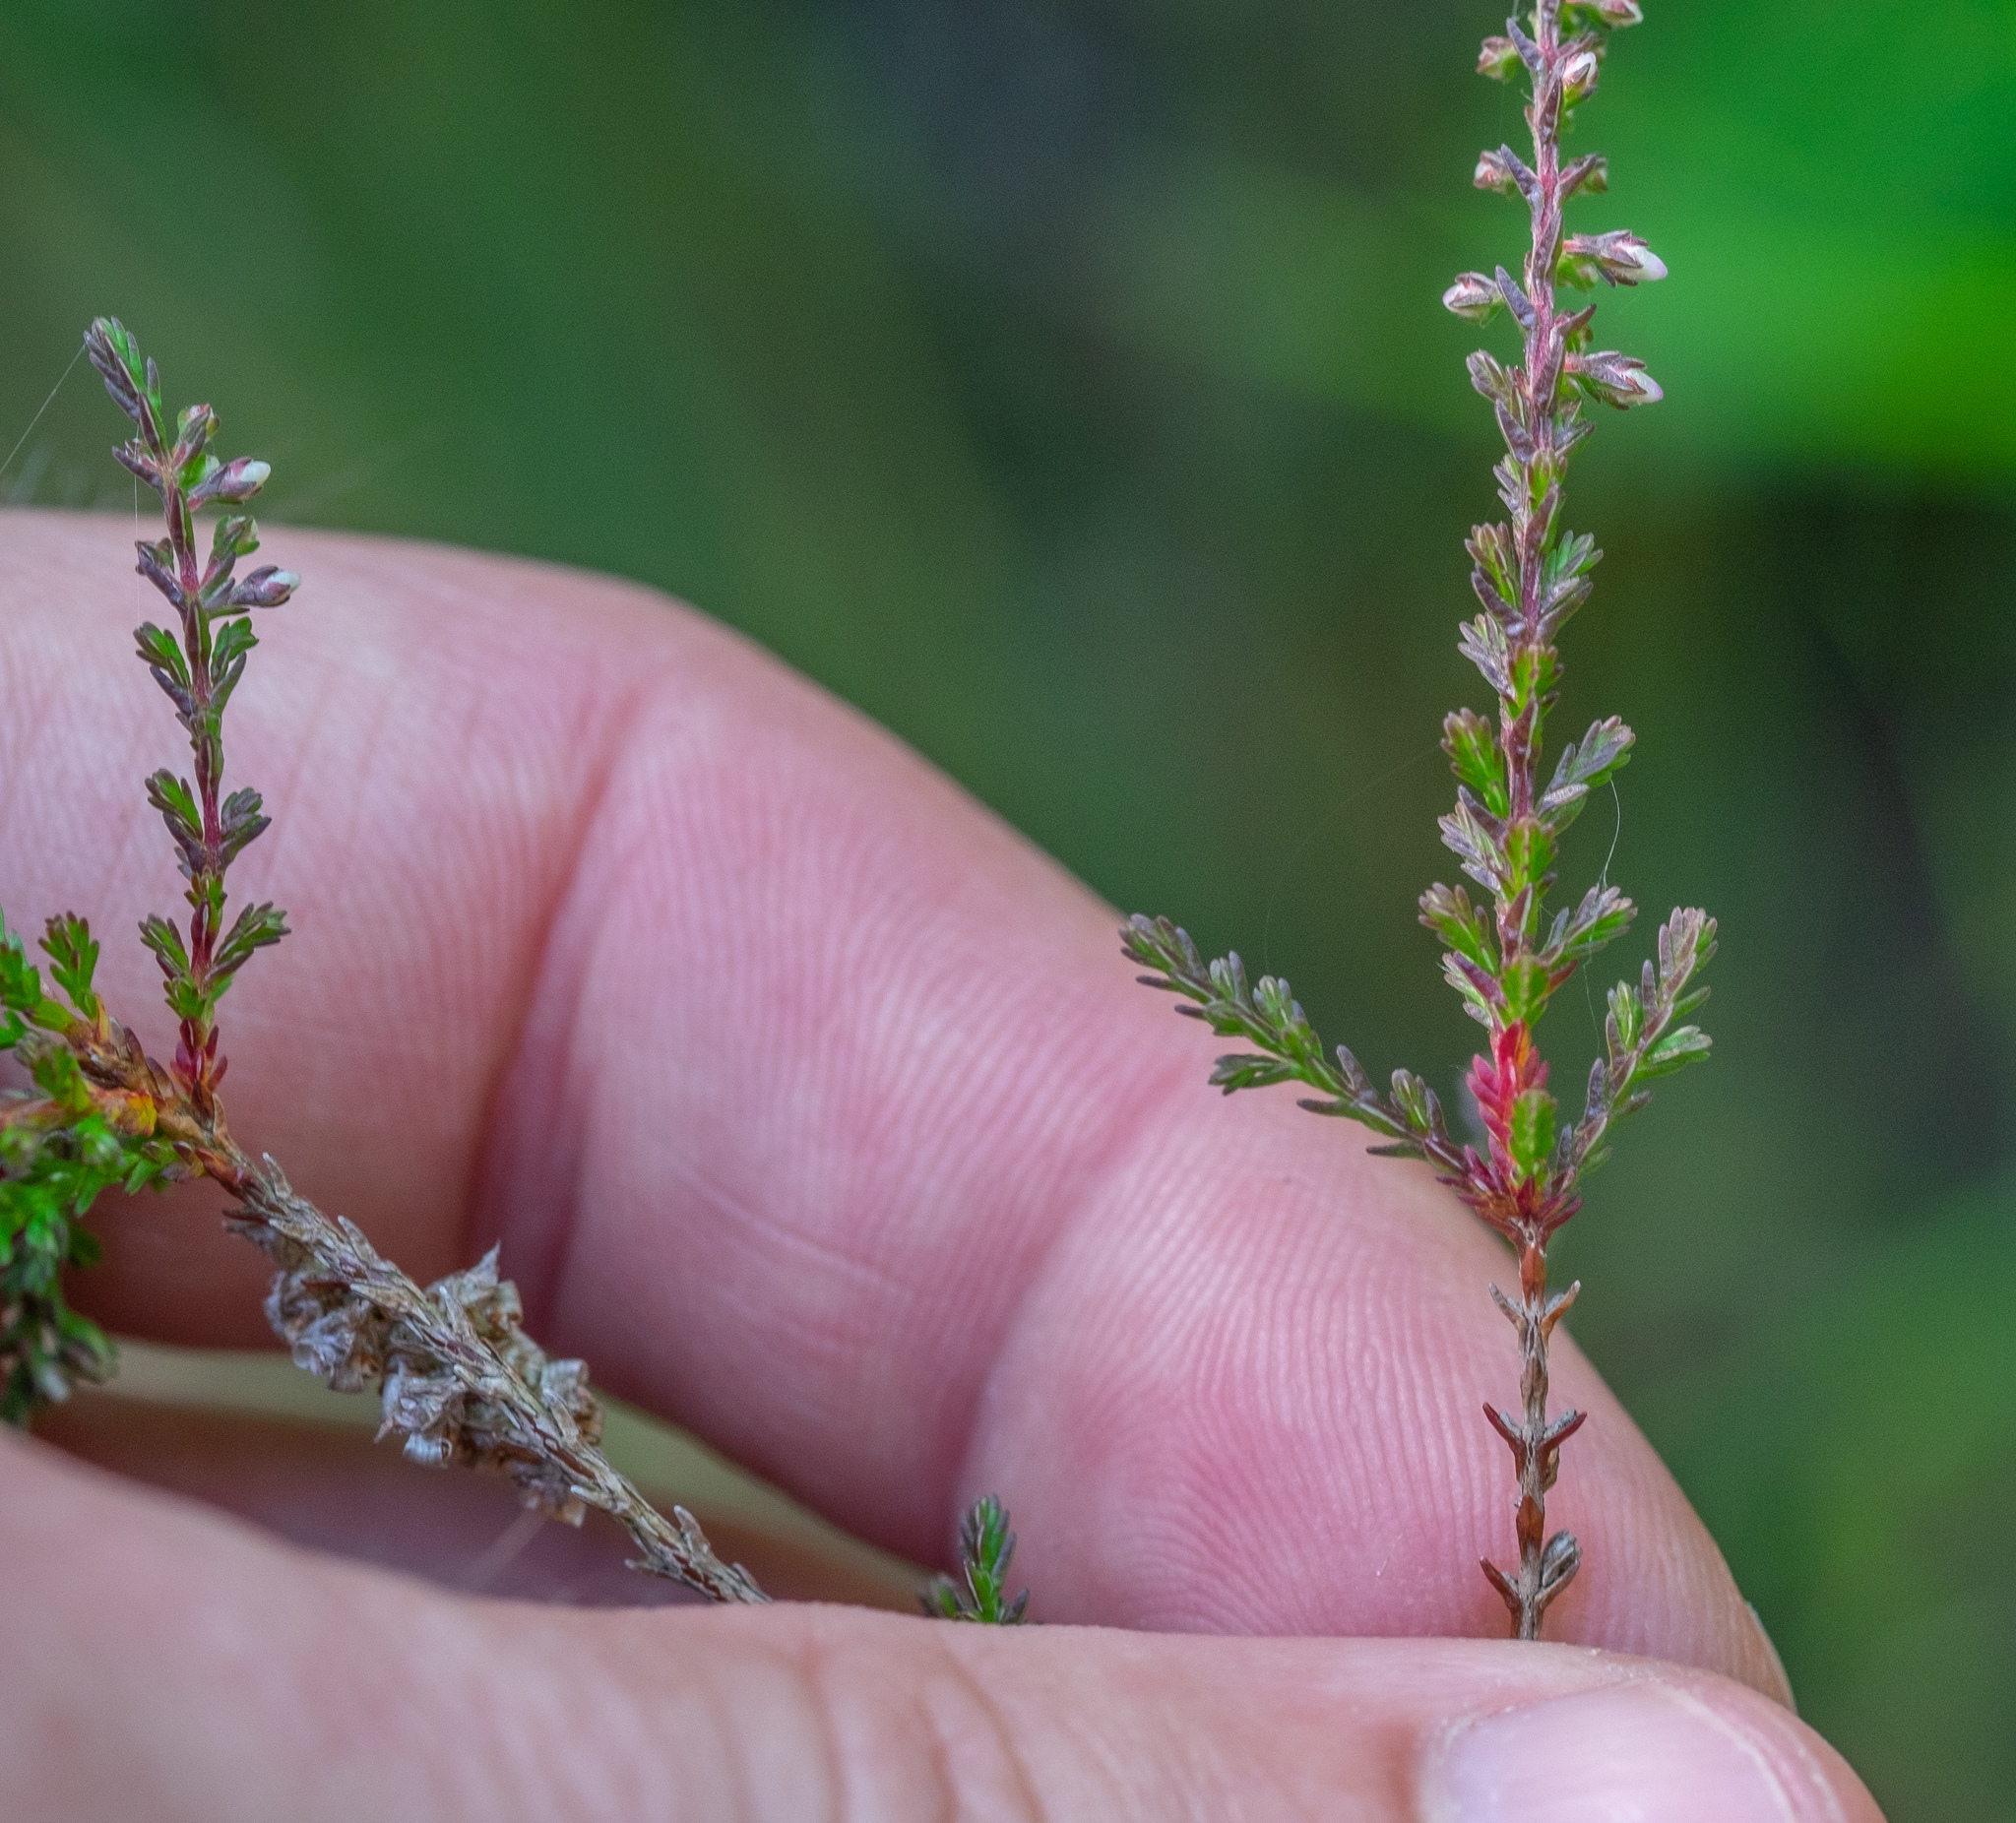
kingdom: Plantae
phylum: Tracheophyta
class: Magnoliopsida
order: Ericales
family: Ericaceae
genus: Calluna
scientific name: Calluna vulgaris
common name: Heather
